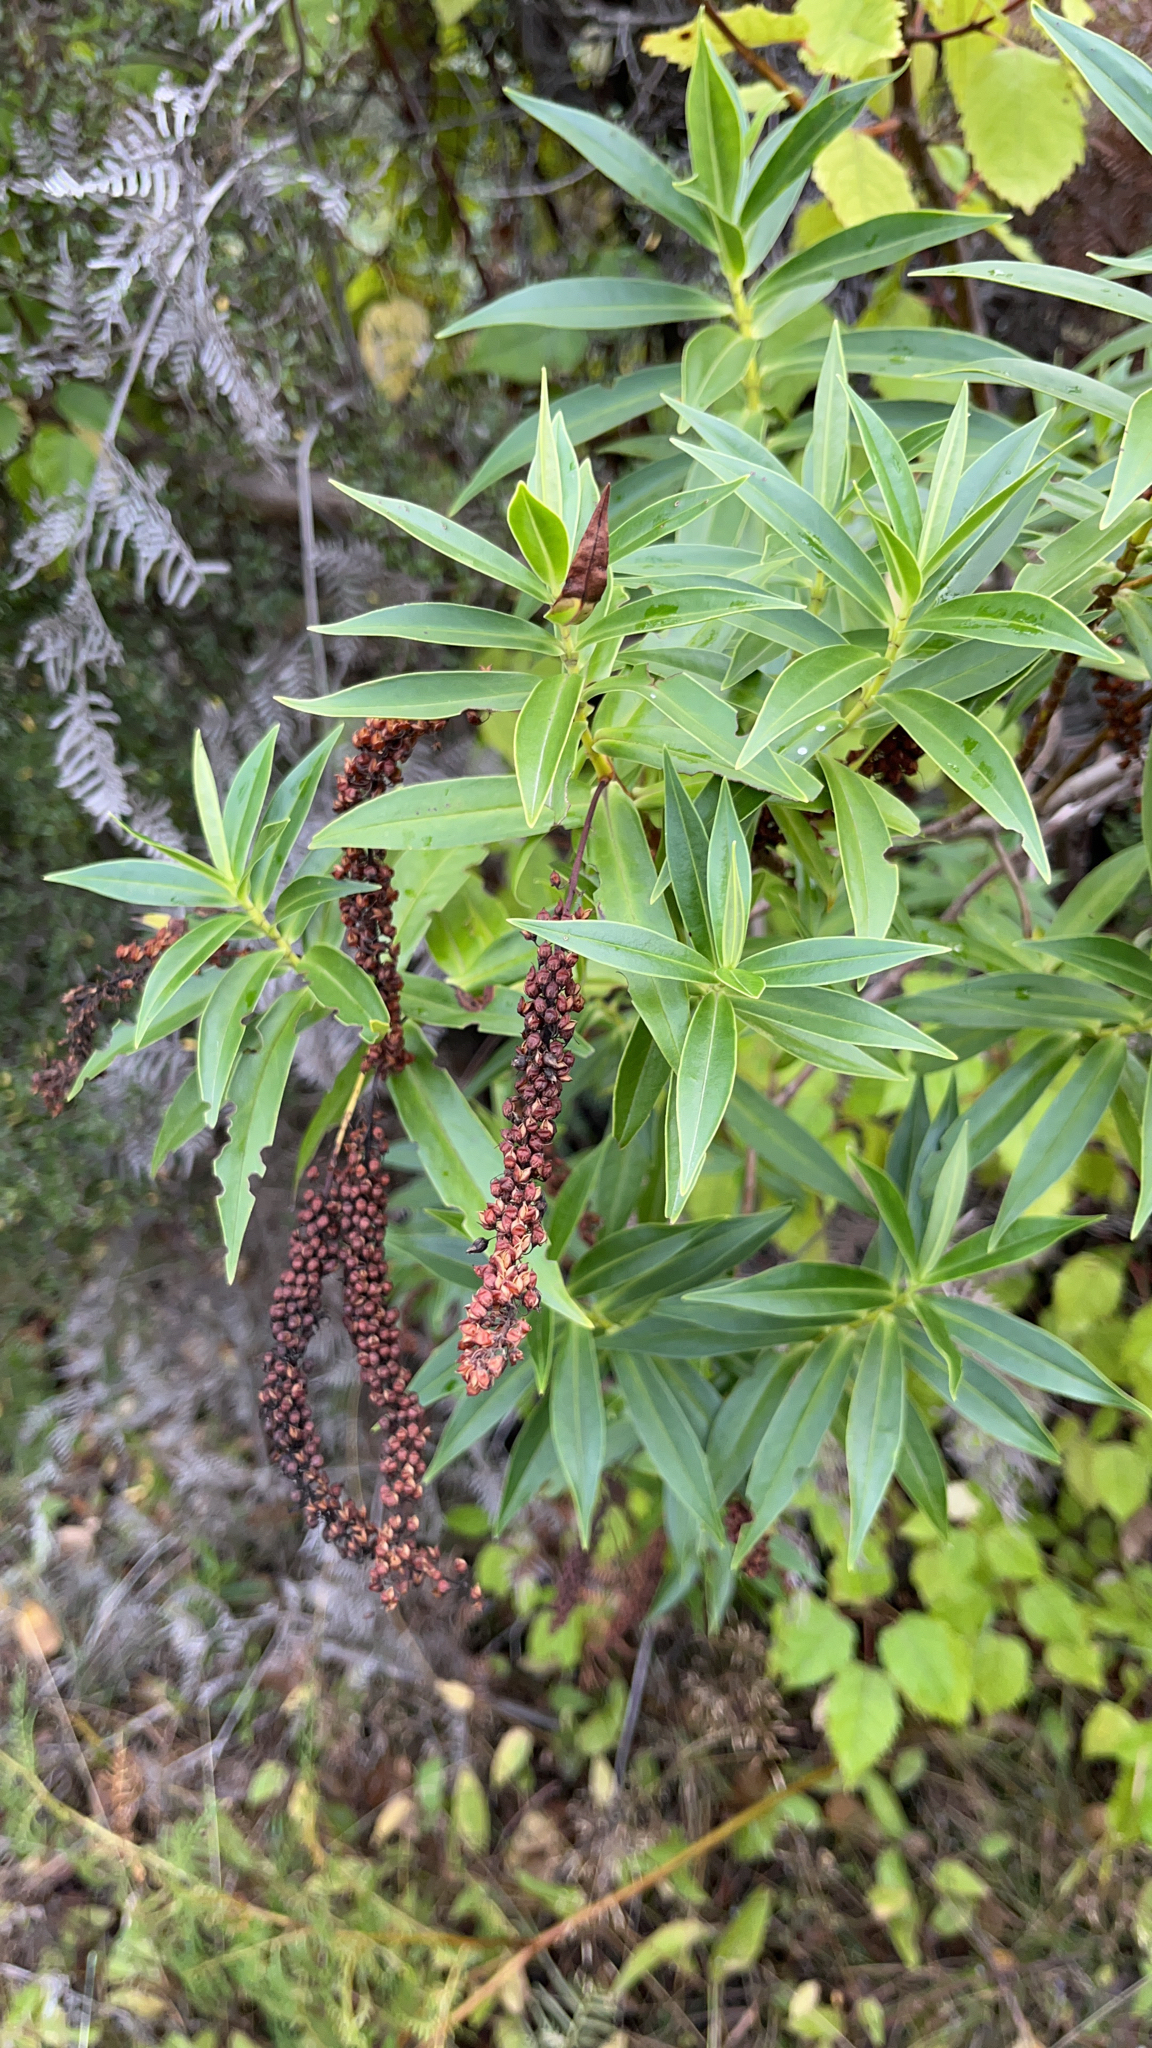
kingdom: Plantae
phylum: Tracheophyta
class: Magnoliopsida
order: Lamiales
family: Plantaginaceae
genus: Veronica
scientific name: Veronica salicifolia
